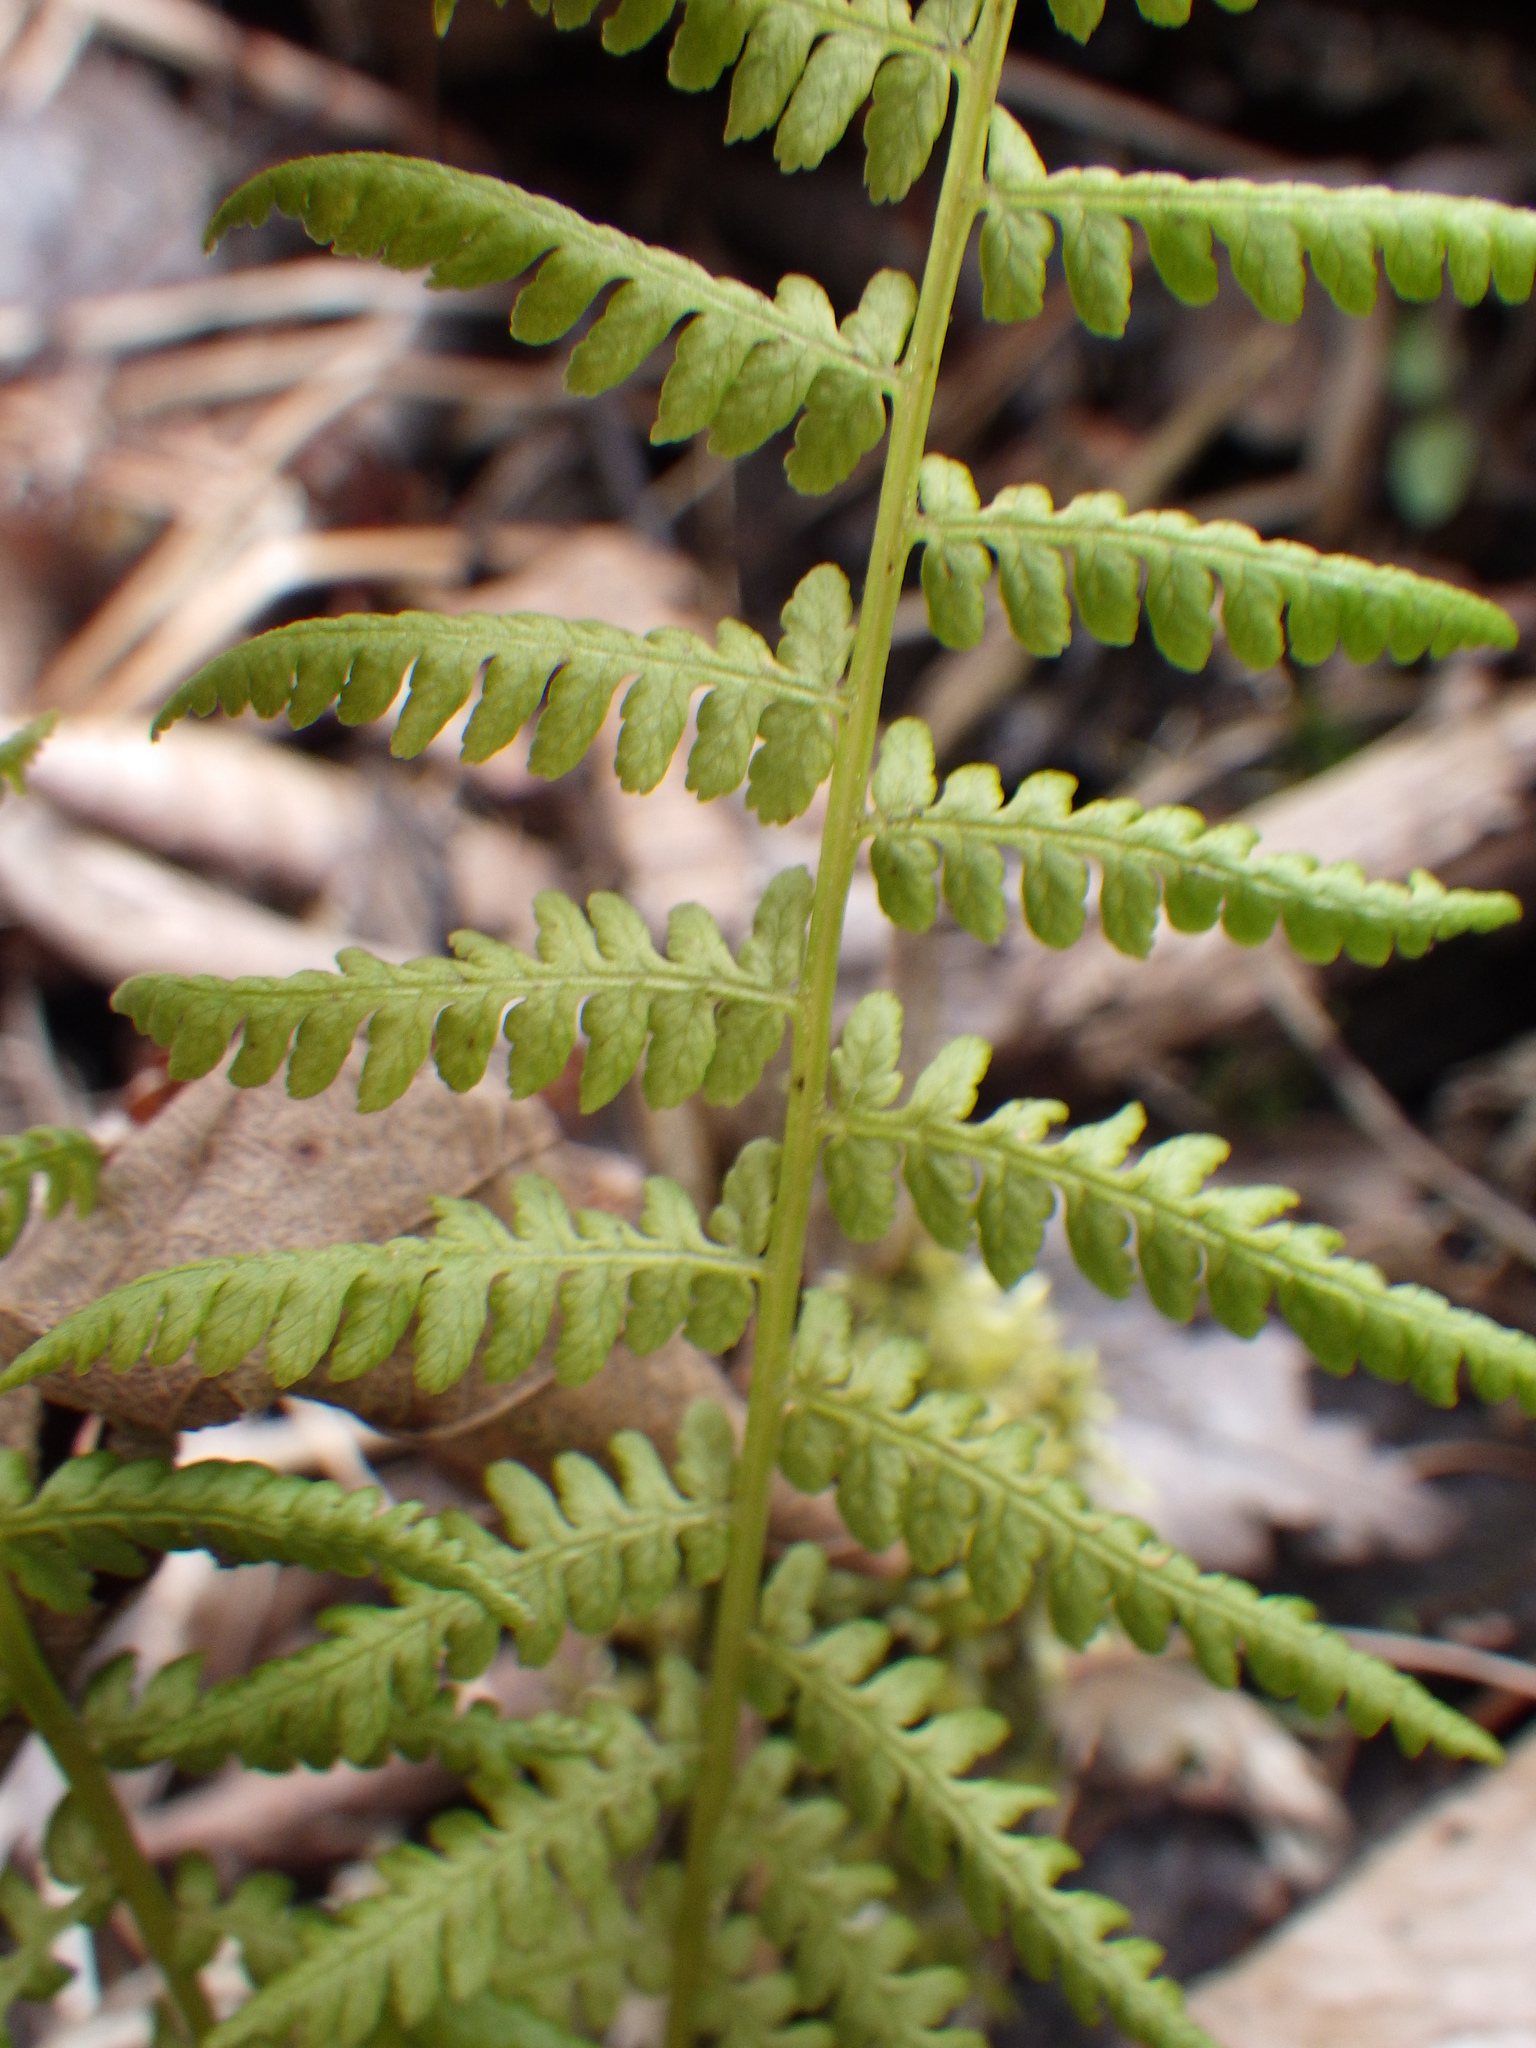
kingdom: Plantae
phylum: Tracheophyta
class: Polypodiopsida
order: Polypodiales
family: Thelypteridaceae
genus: Amauropelta
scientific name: Amauropelta noveboracensis
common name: New york fern
